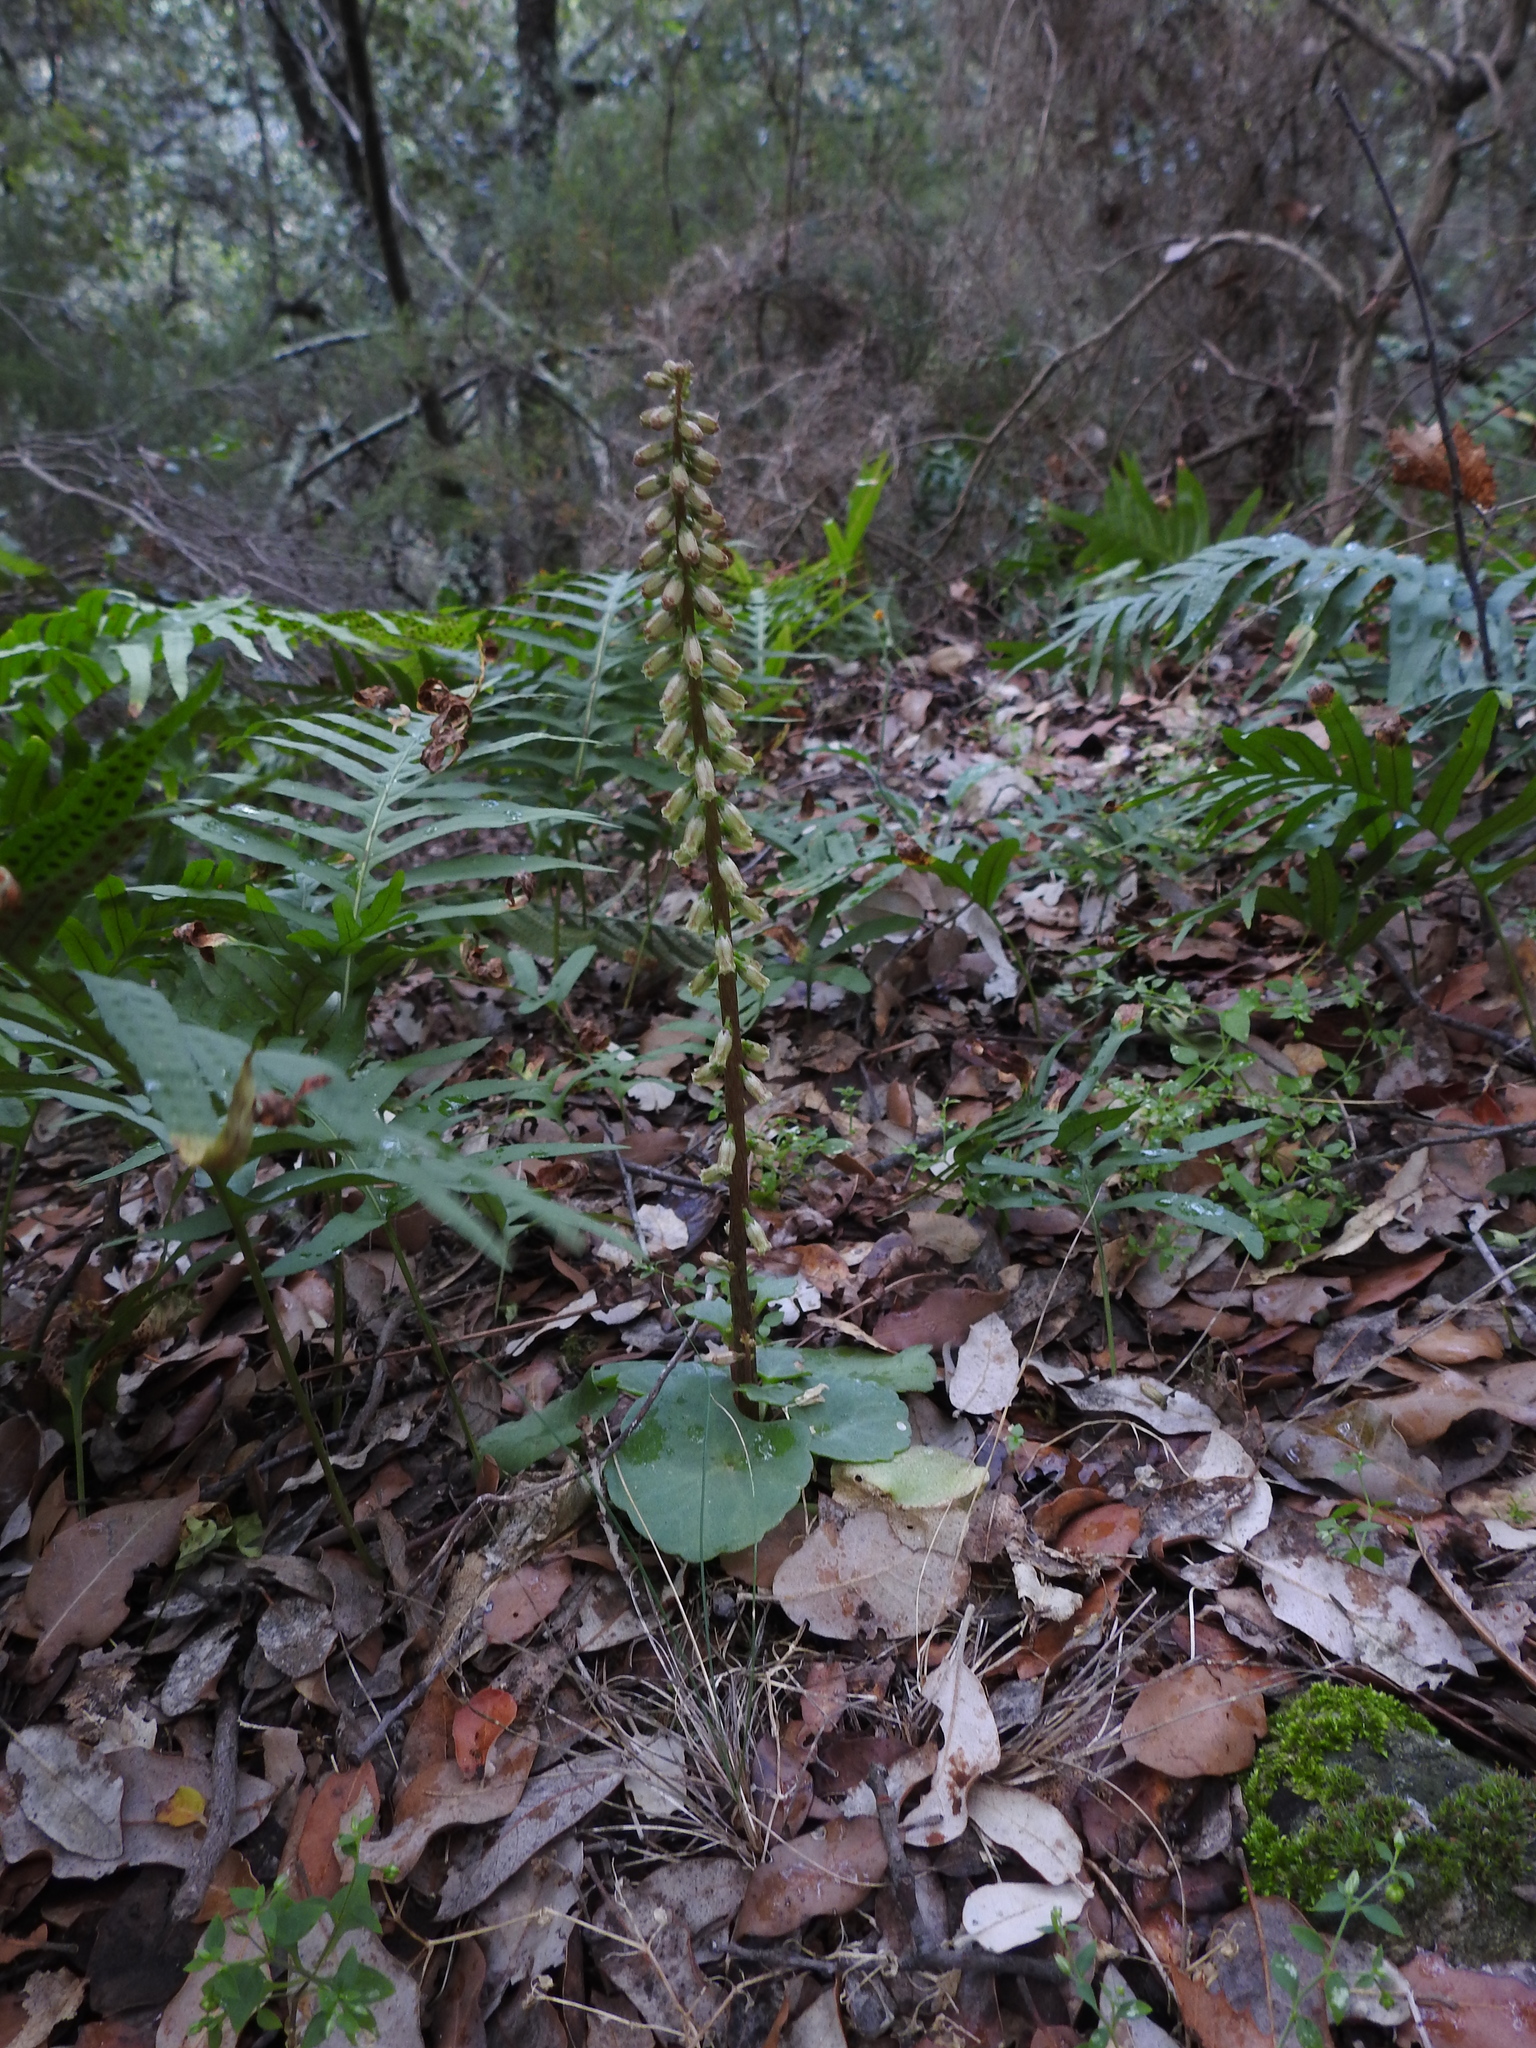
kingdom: Plantae
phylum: Tracheophyta
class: Magnoliopsida
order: Saxifragales
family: Crassulaceae
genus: Umbilicus
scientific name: Umbilicus rupestris
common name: Navelwort
